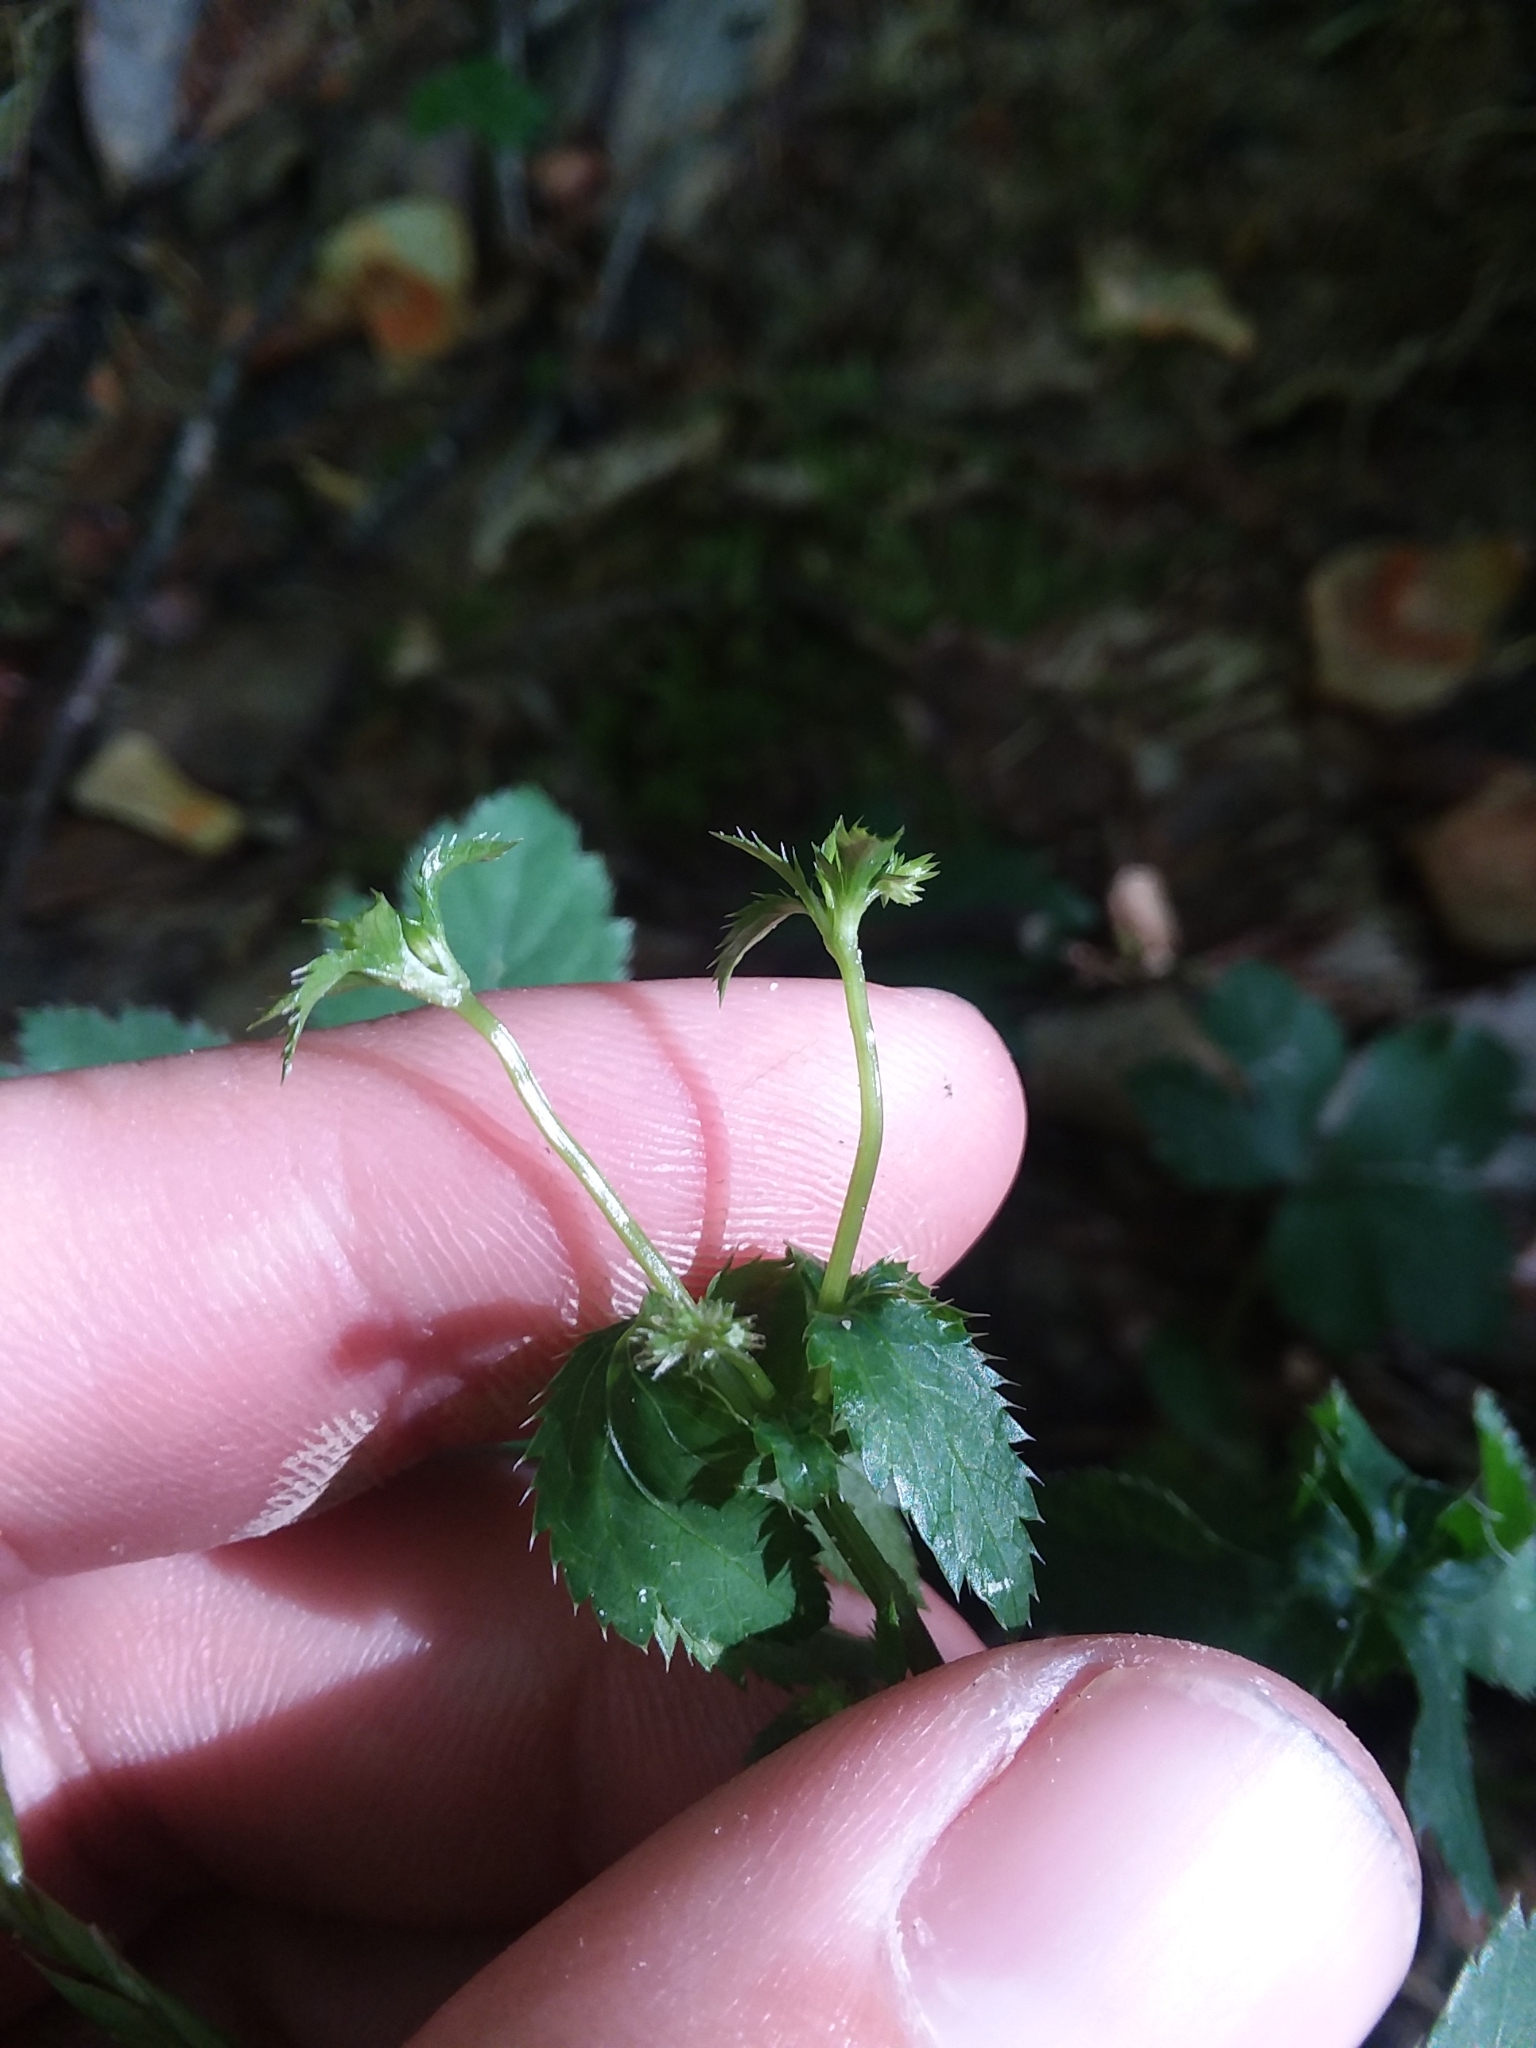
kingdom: Plantae
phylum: Tracheophyta
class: Magnoliopsida
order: Apiales
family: Apiaceae
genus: Sanicula
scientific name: Sanicula canadensis
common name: Canada sanicle
